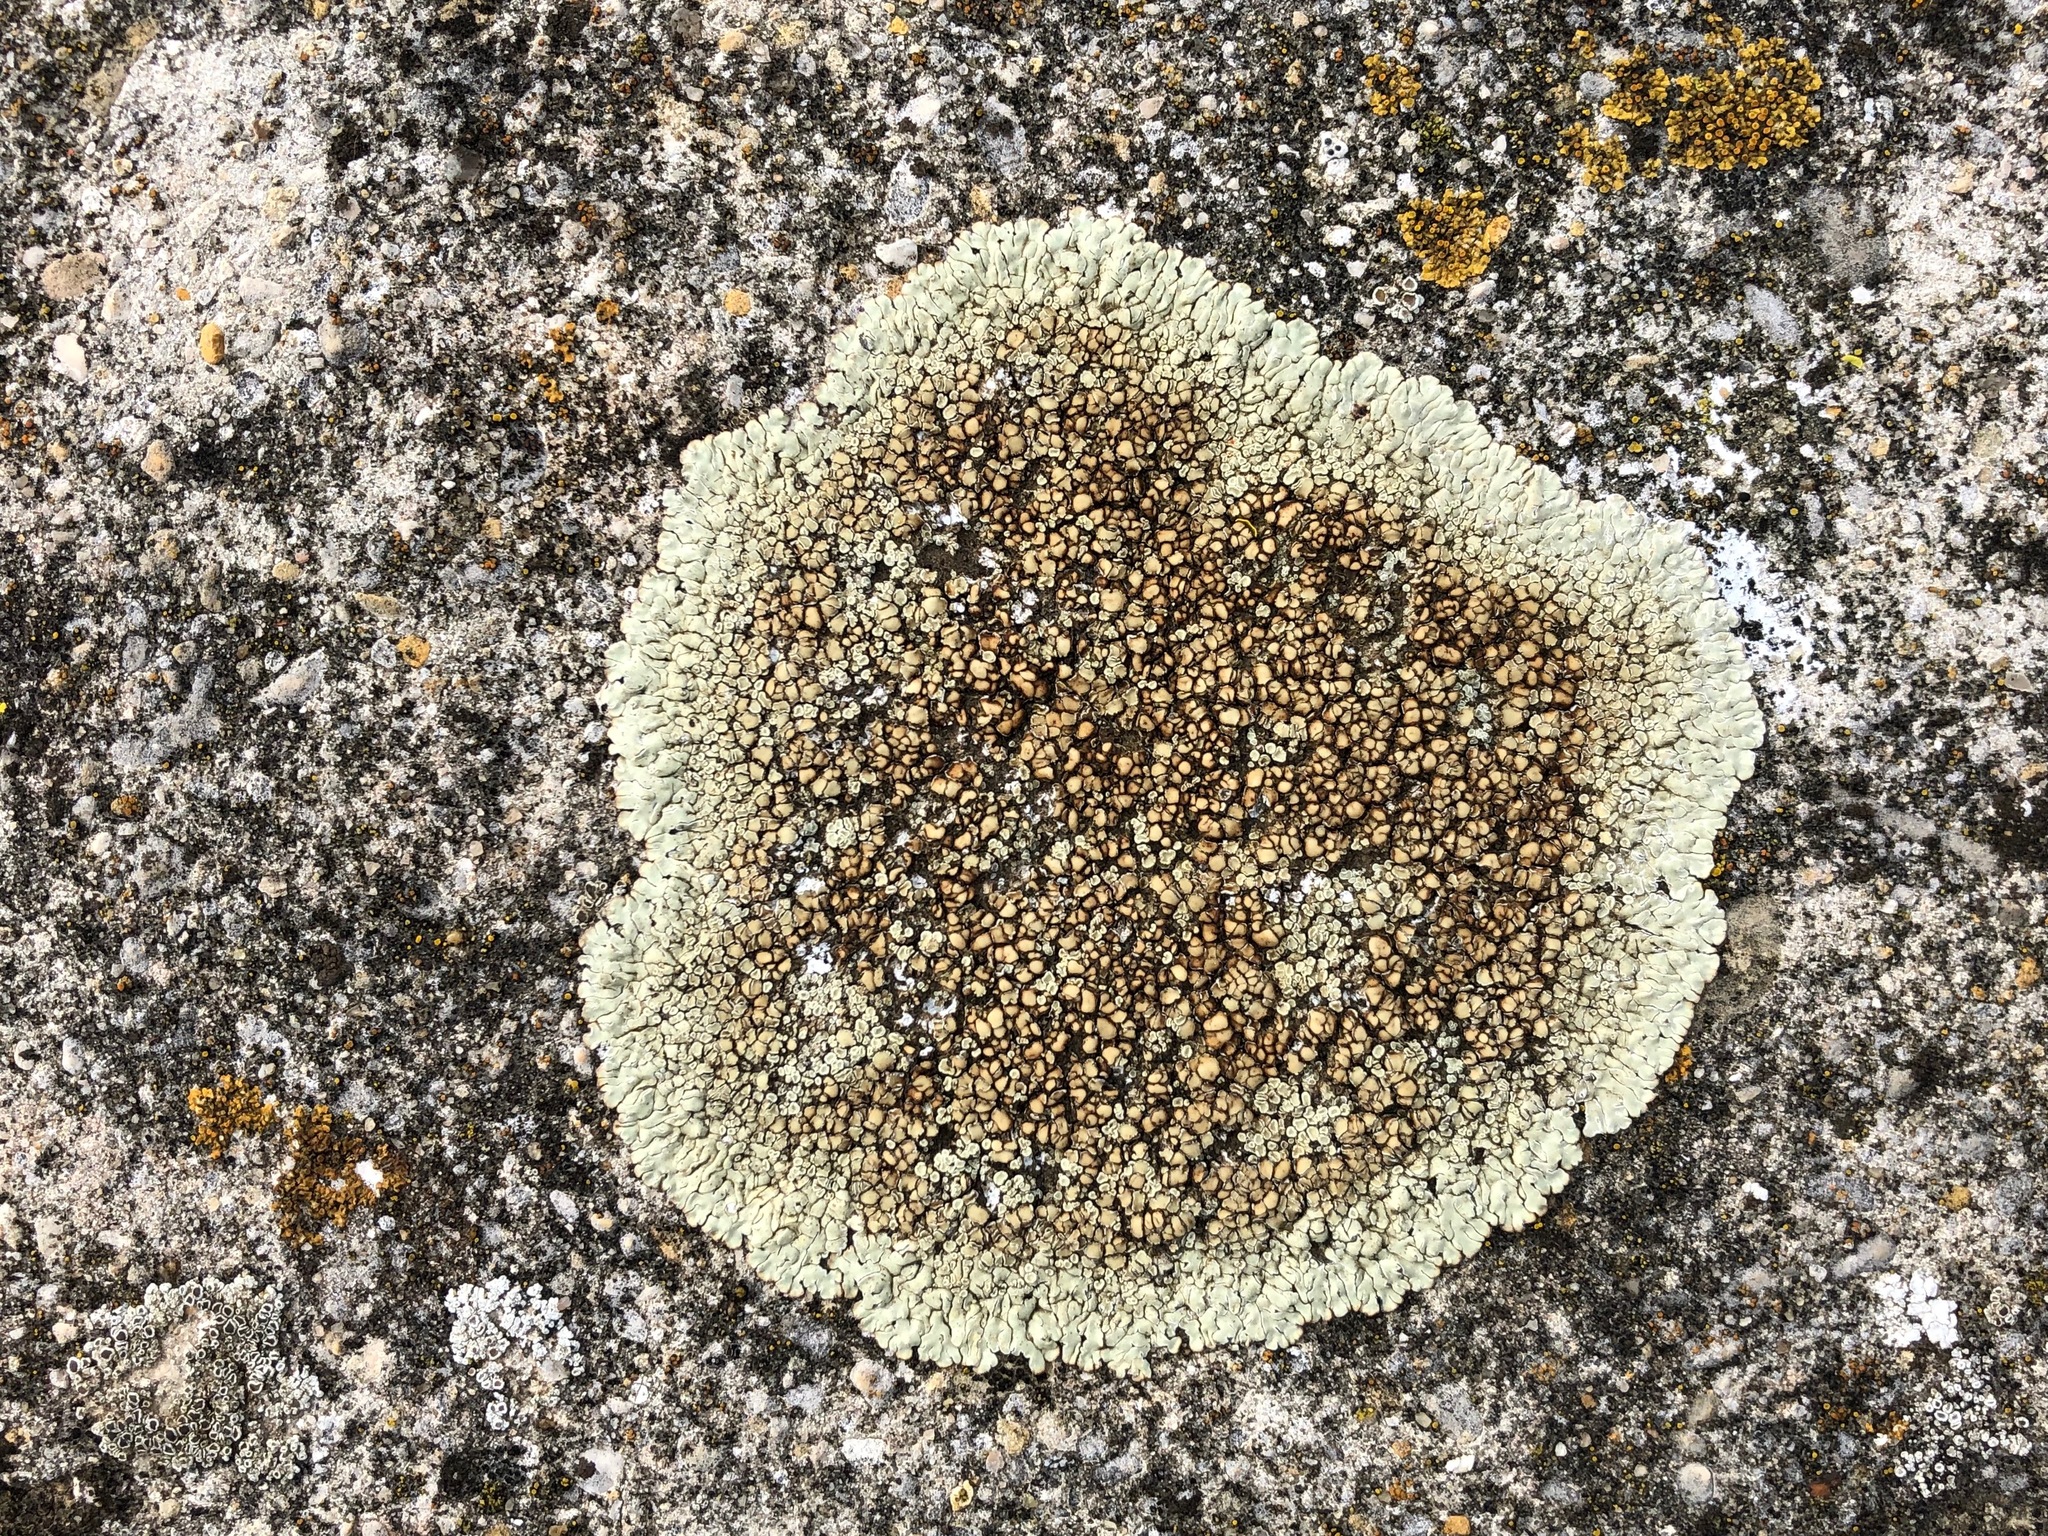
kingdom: Fungi
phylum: Ascomycota
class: Lecanoromycetes
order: Lecanorales
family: Lecanoraceae
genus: Protoparmeliopsis
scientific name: Protoparmeliopsis muralis
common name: Stonewall rim lichen
